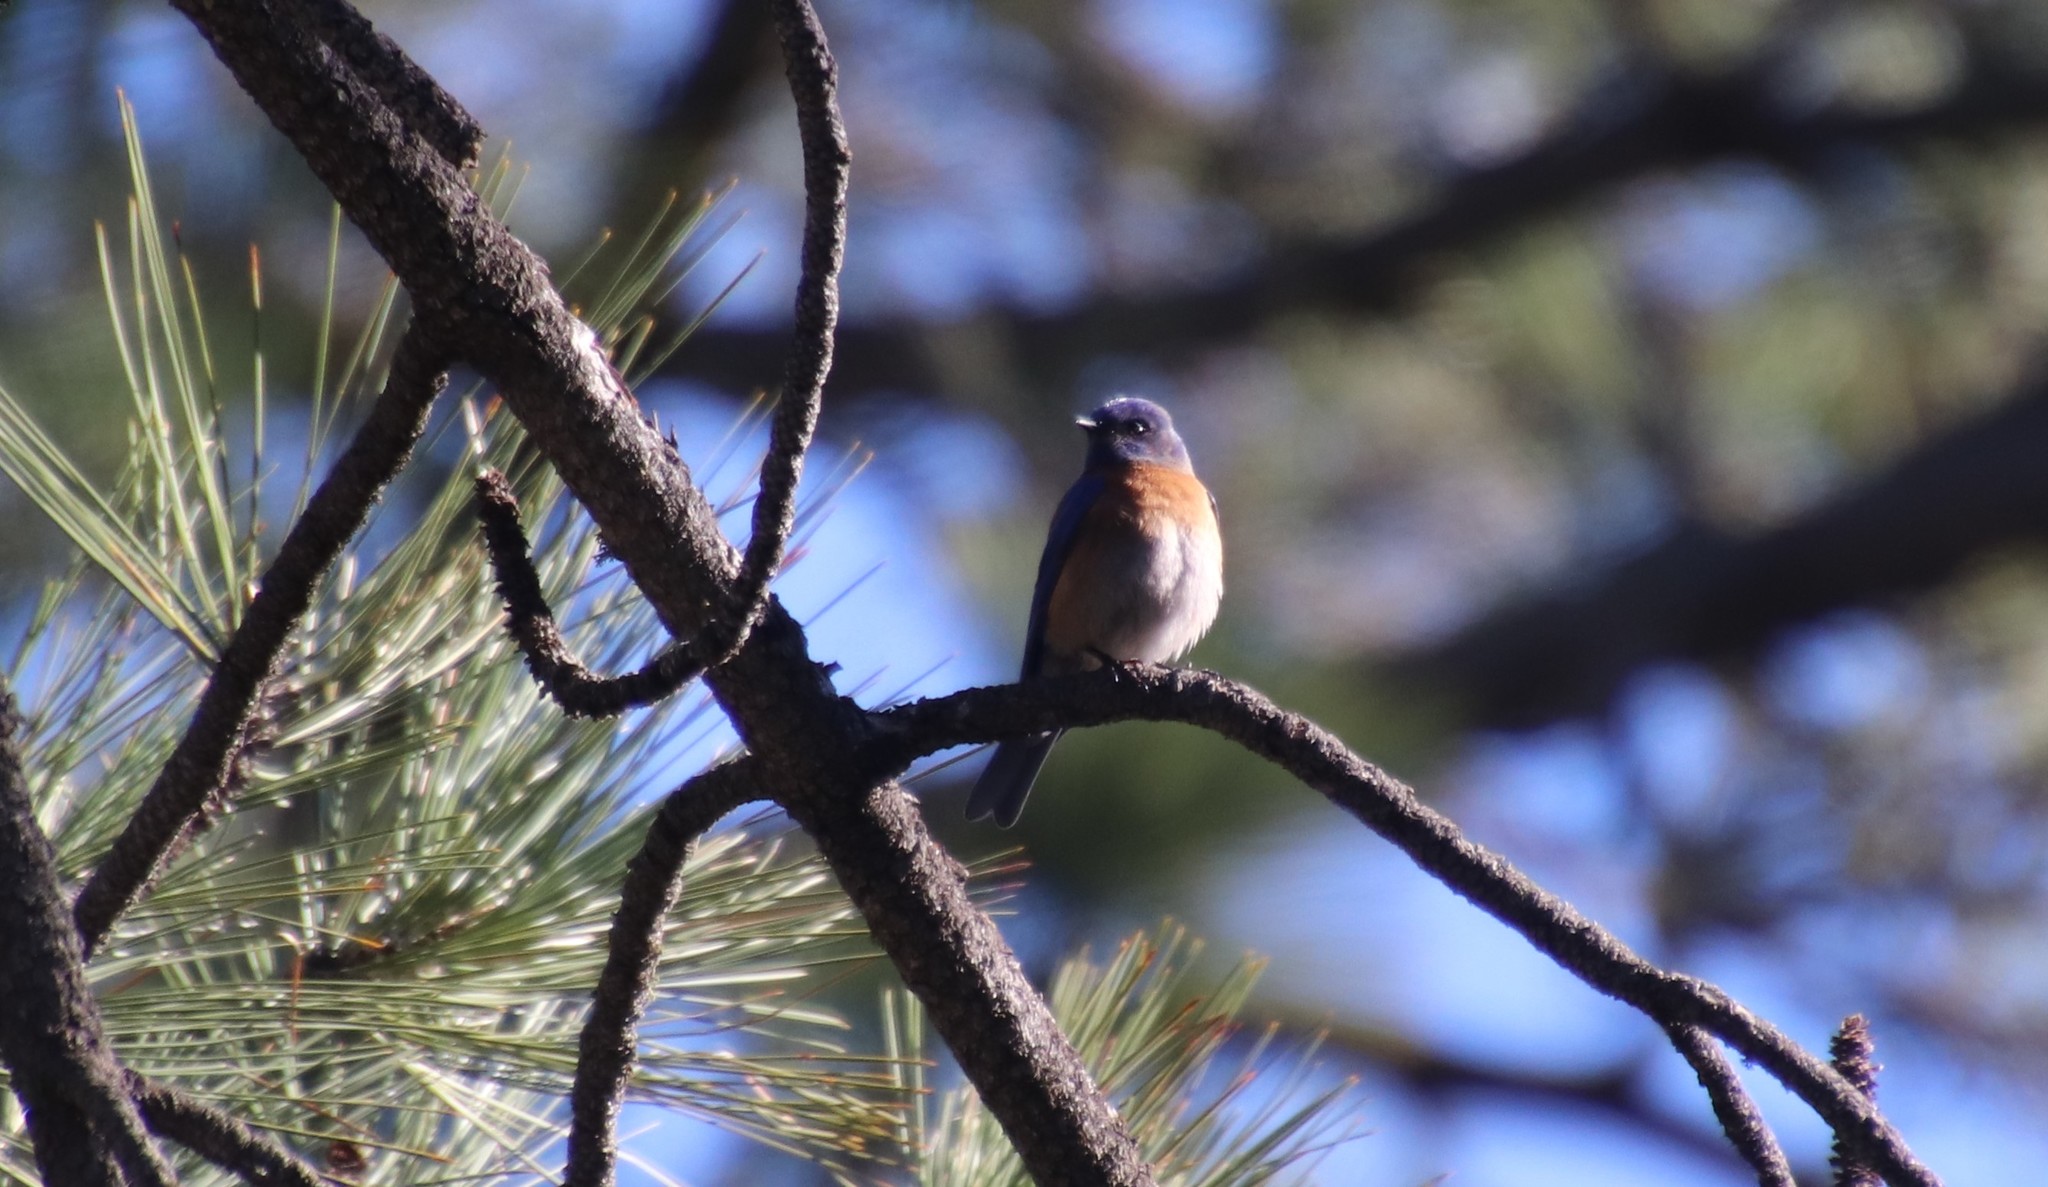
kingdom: Animalia
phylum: Chordata
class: Aves
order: Passeriformes
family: Turdidae
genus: Sialia
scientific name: Sialia mexicana
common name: Western bluebird
